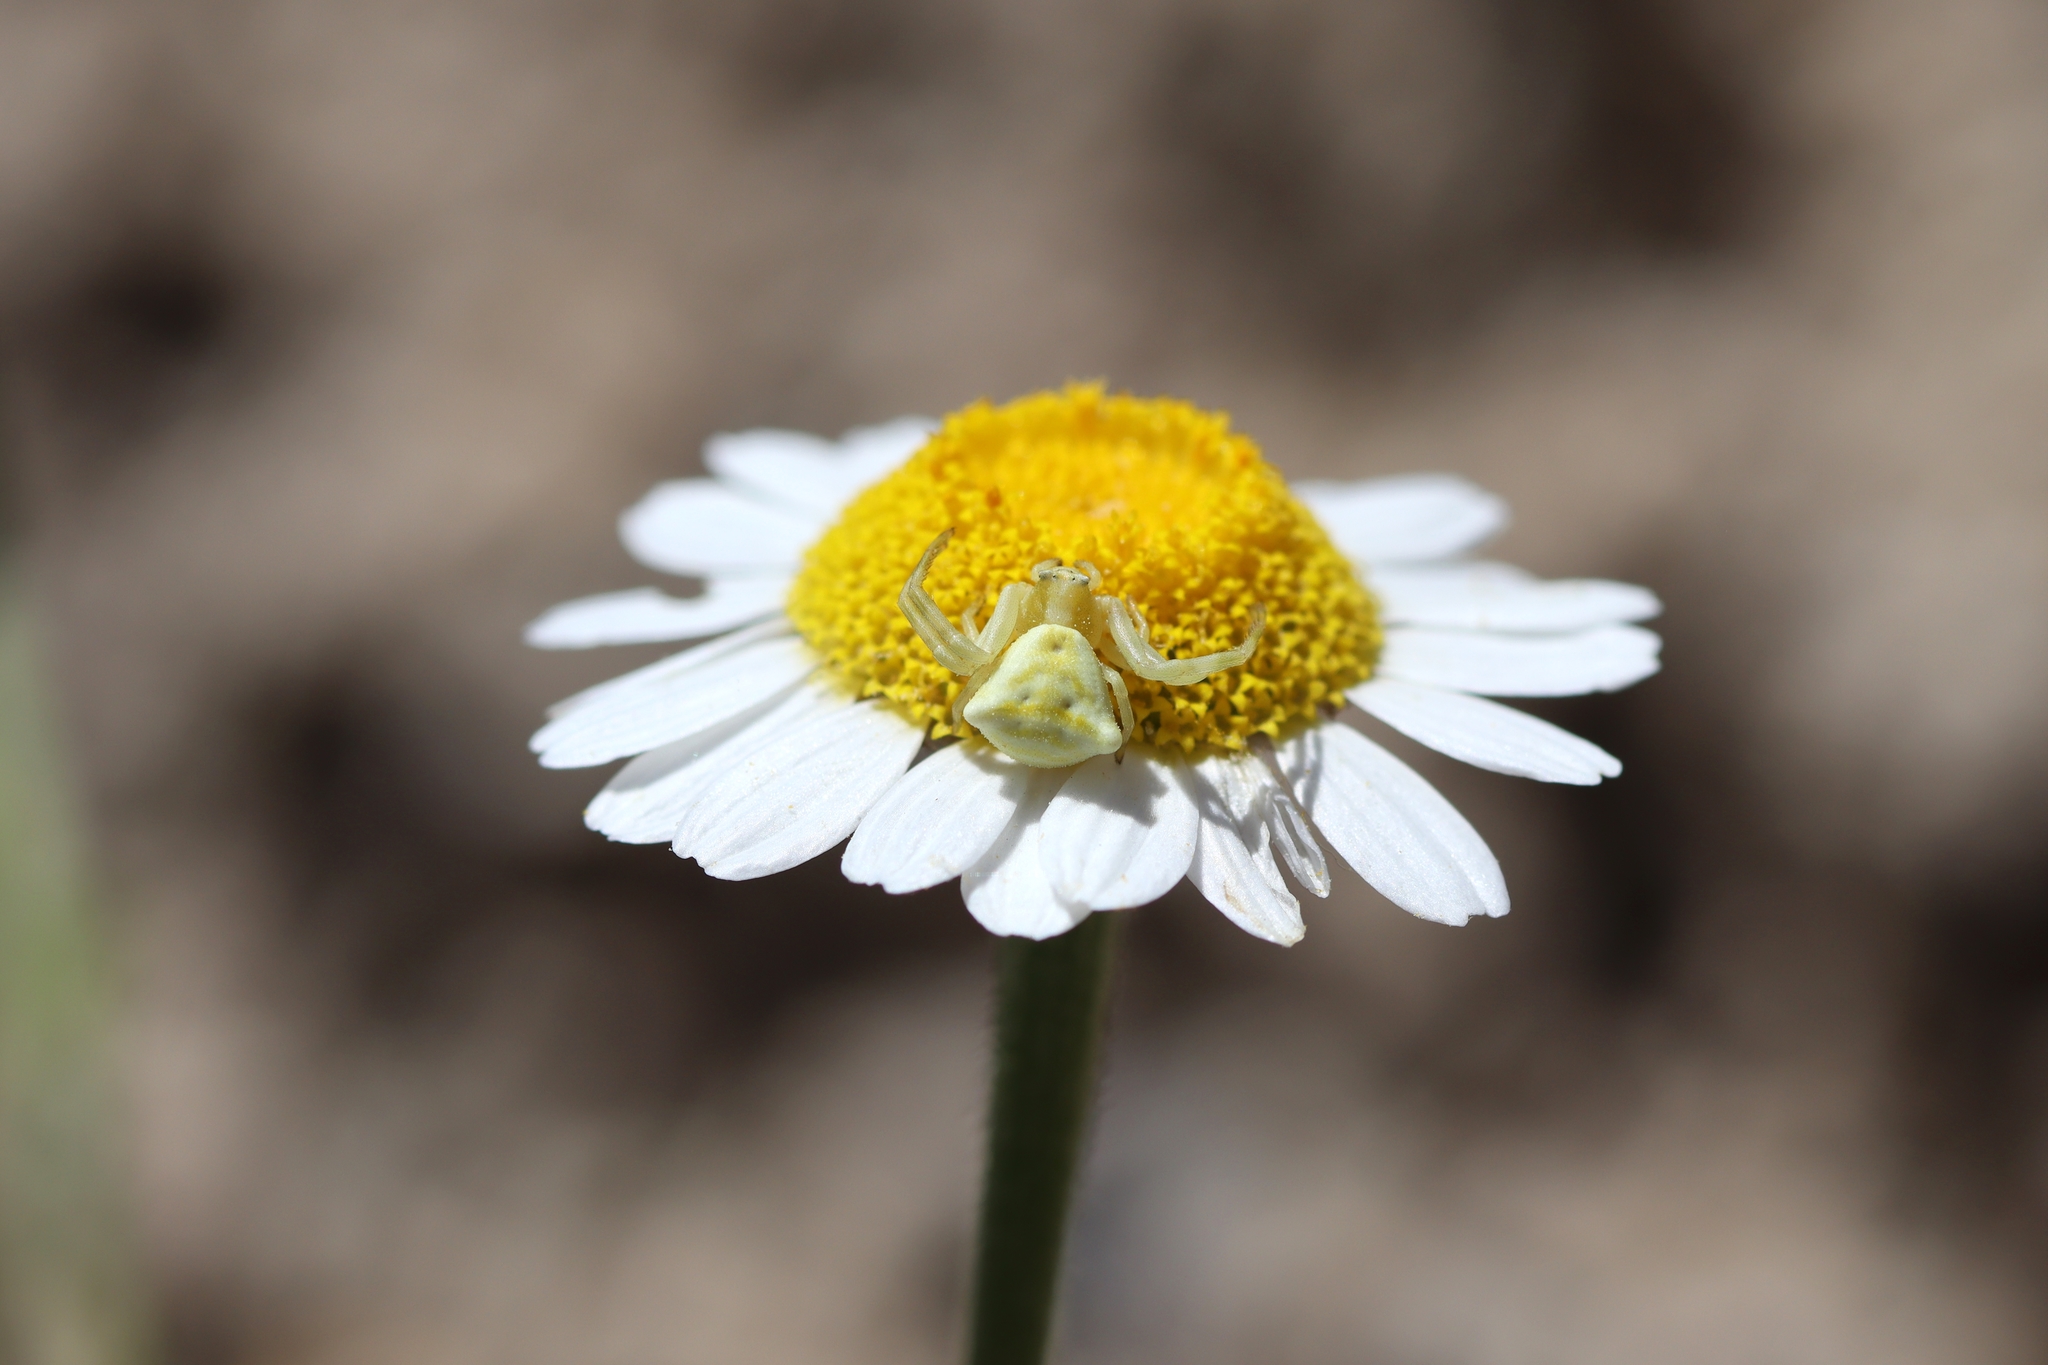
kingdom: Animalia
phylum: Arthropoda
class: Arachnida
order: Araneae
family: Thomisidae
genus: Thomisus
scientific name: Thomisus onustus
